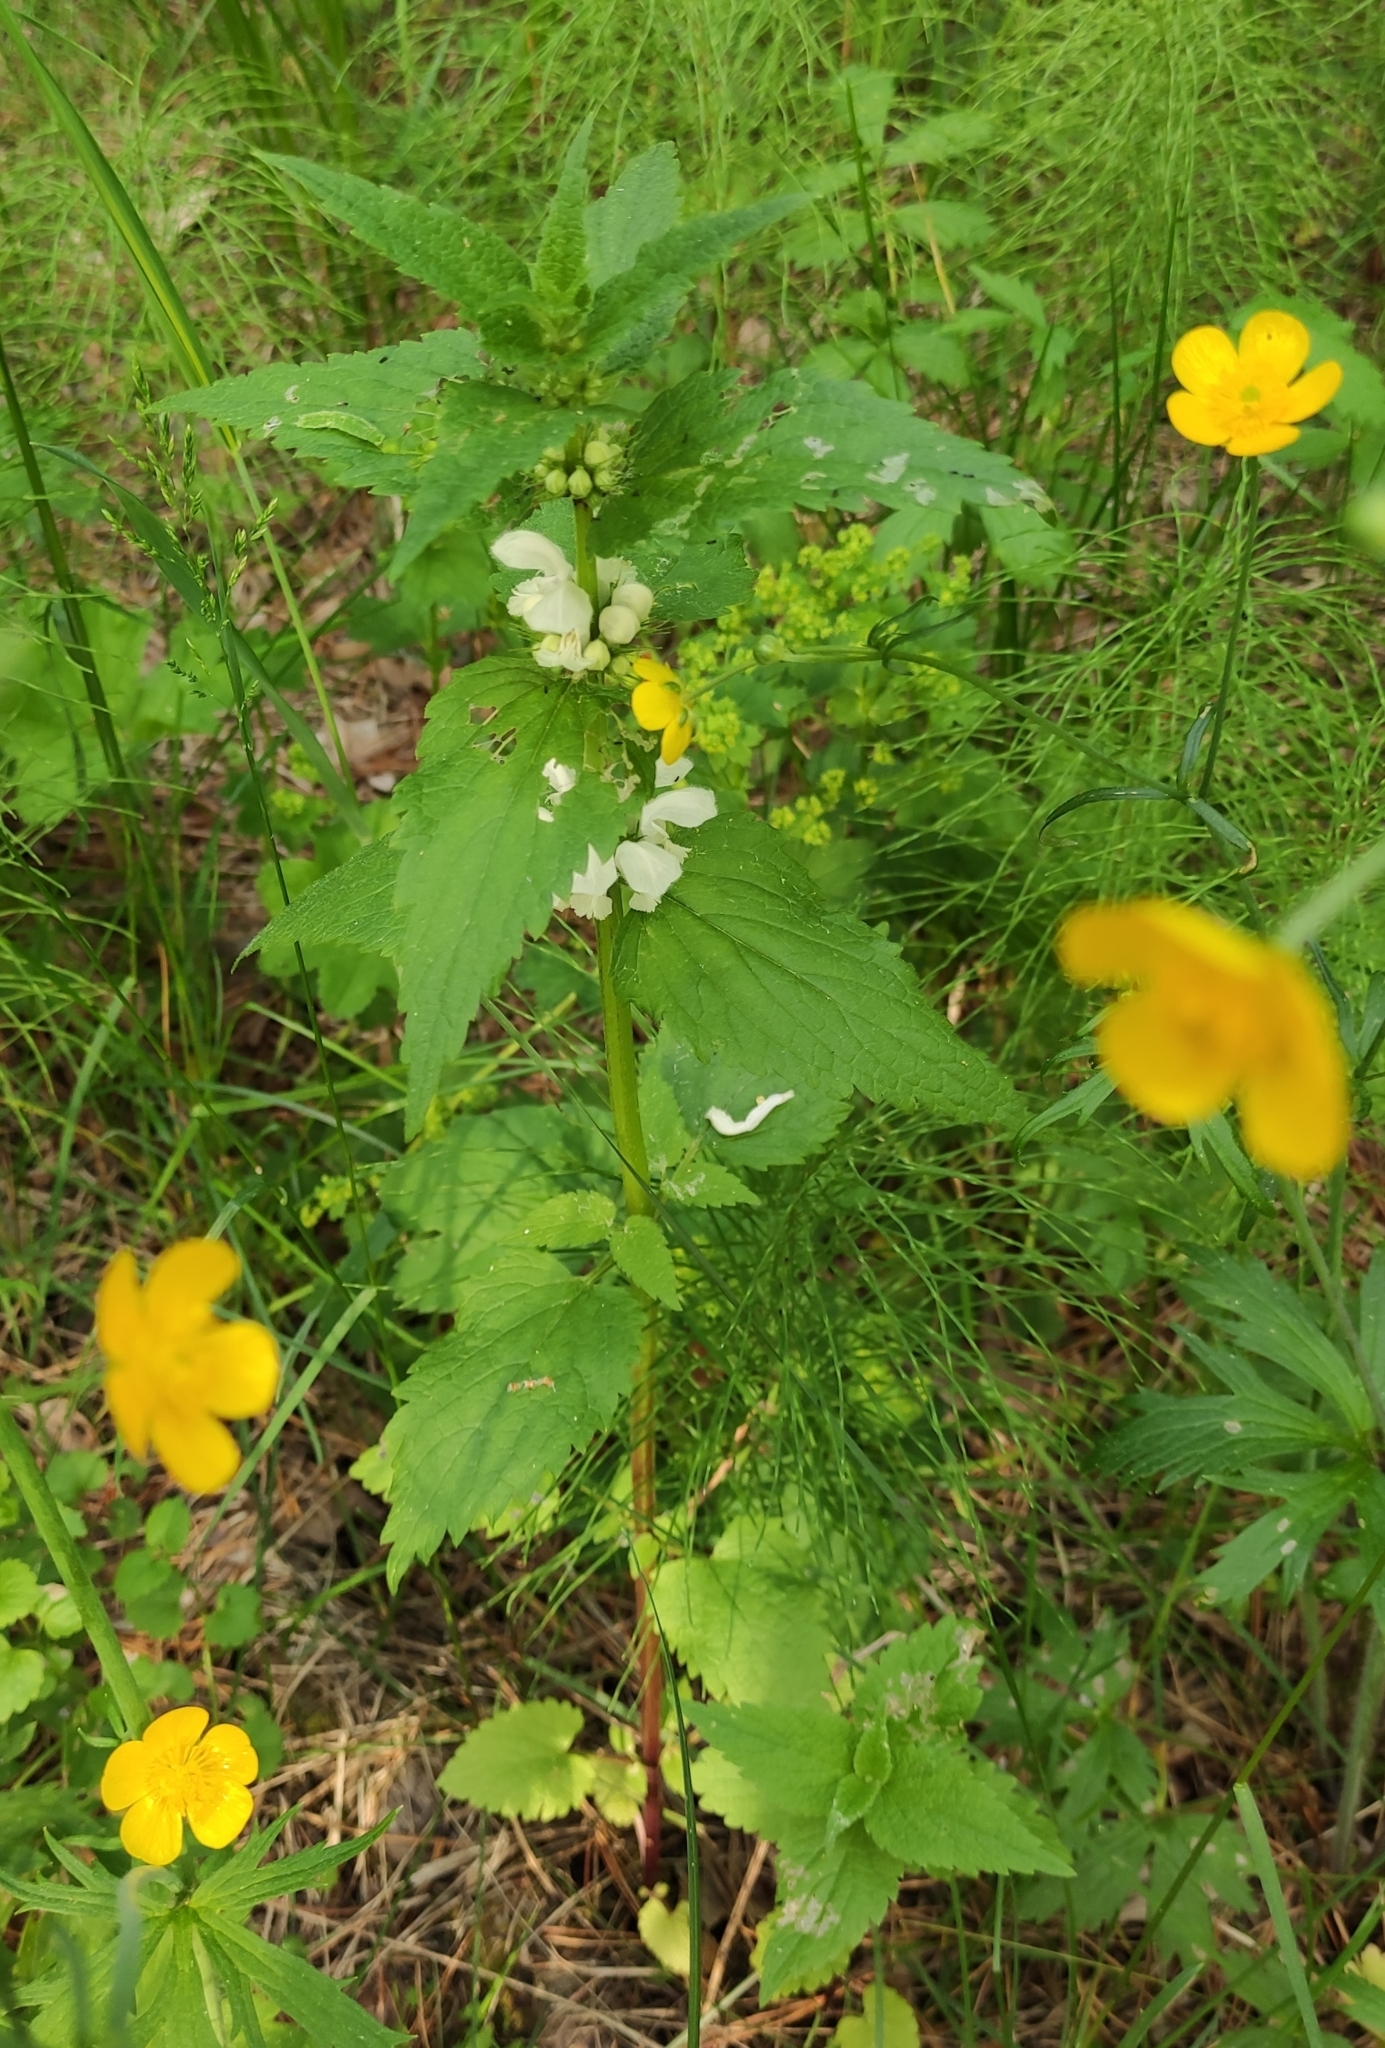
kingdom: Plantae
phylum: Tracheophyta
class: Magnoliopsida
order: Lamiales
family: Lamiaceae
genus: Lamium
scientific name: Lamium album
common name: White dead-nettle
